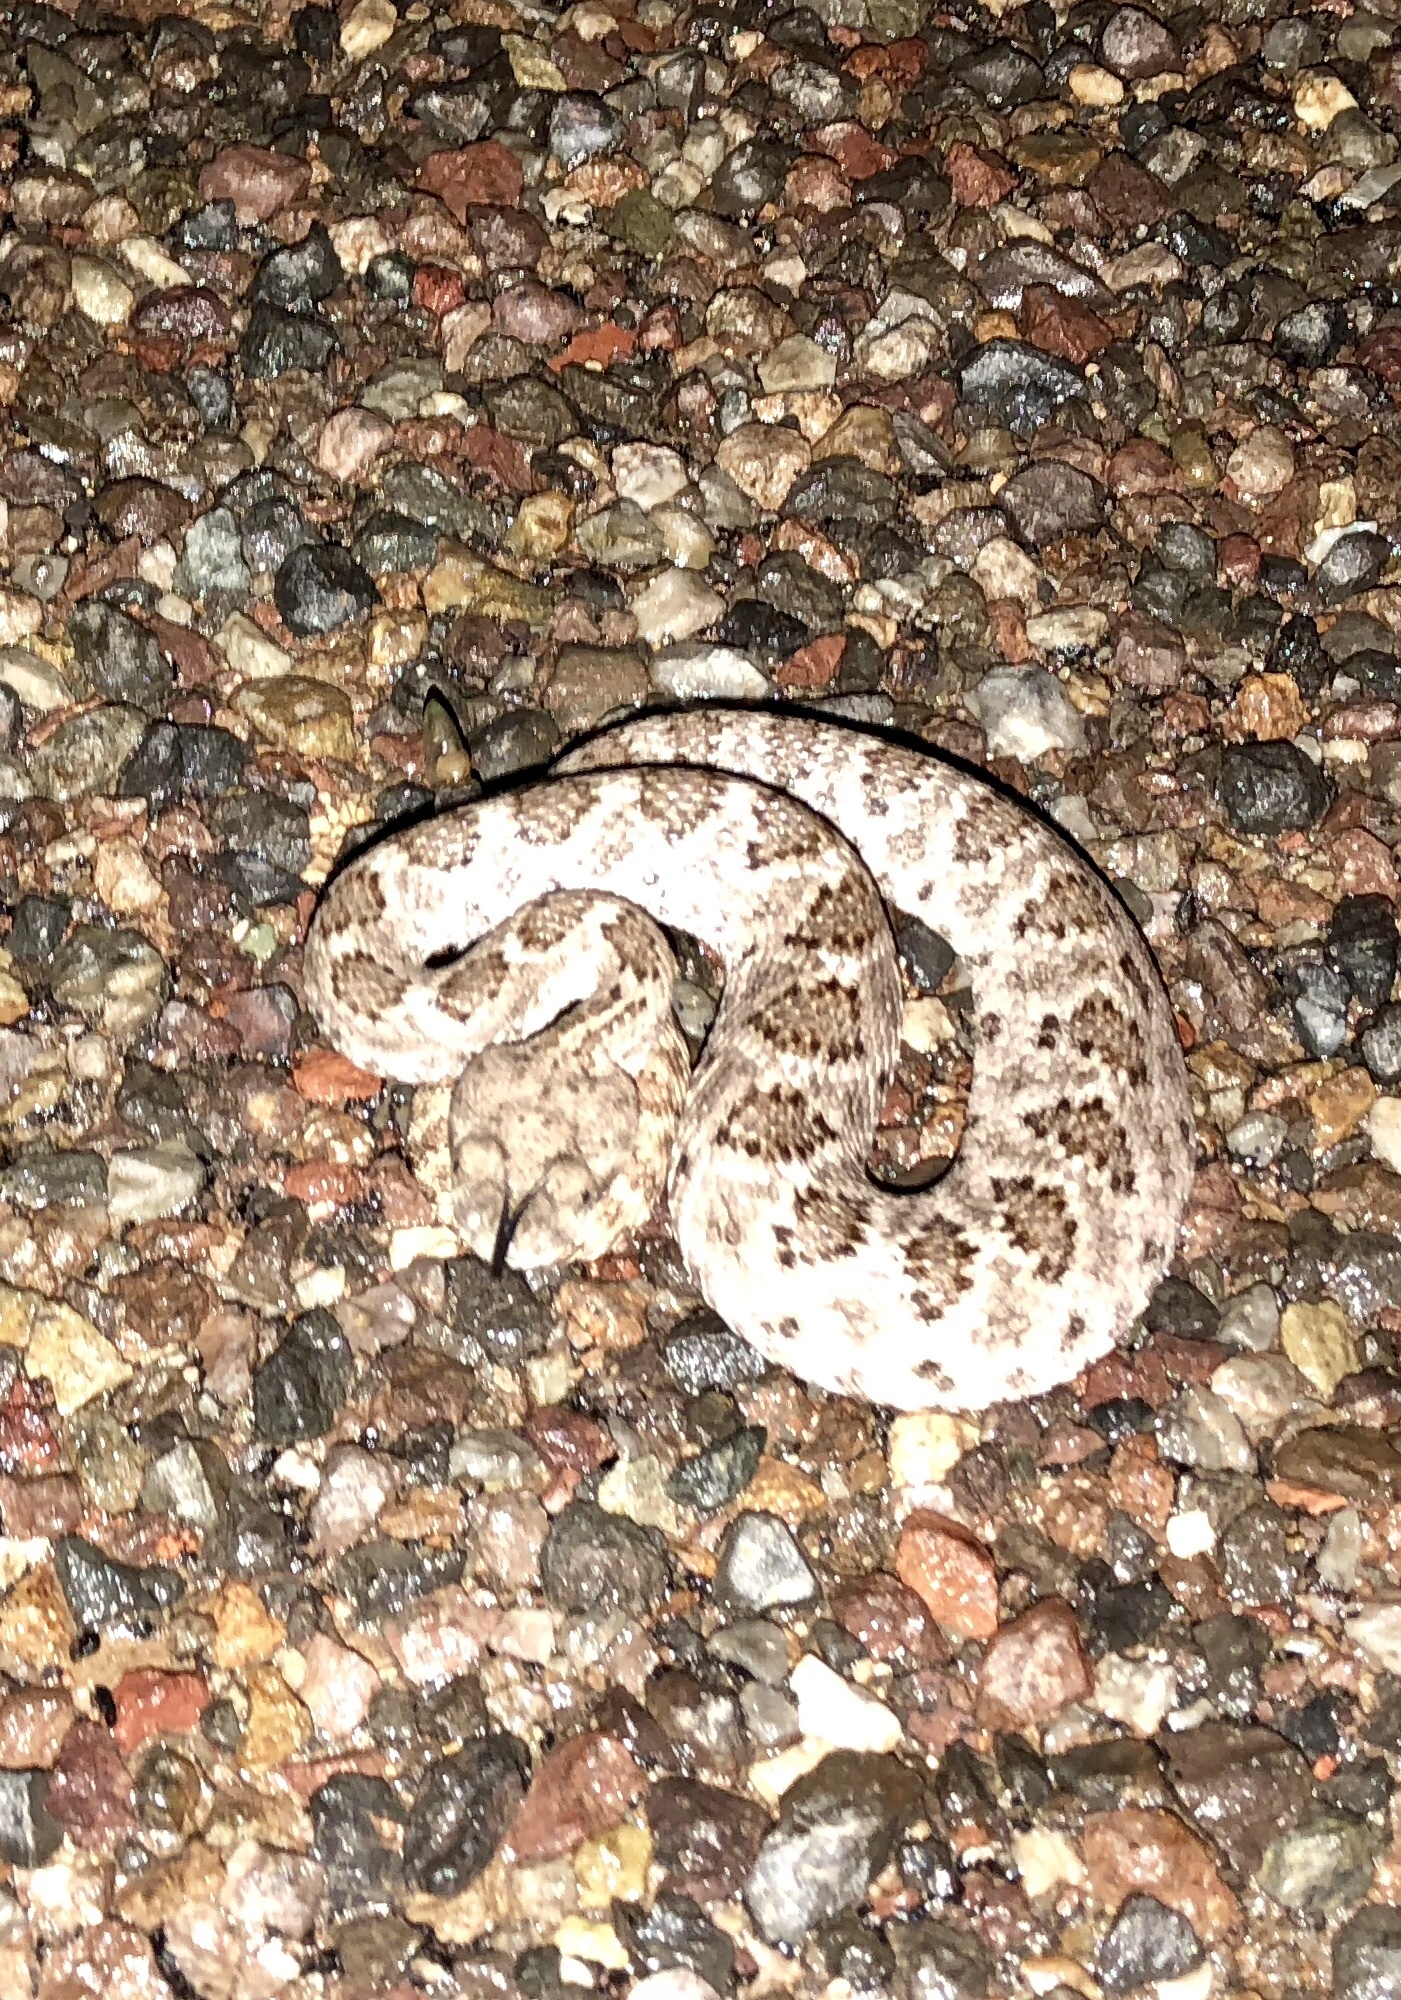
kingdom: Animalia
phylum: Chordata
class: Squamata
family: Viperidae
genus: Crotalus
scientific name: Crotalus atrox
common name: Western diamond-backed rattlesnake
